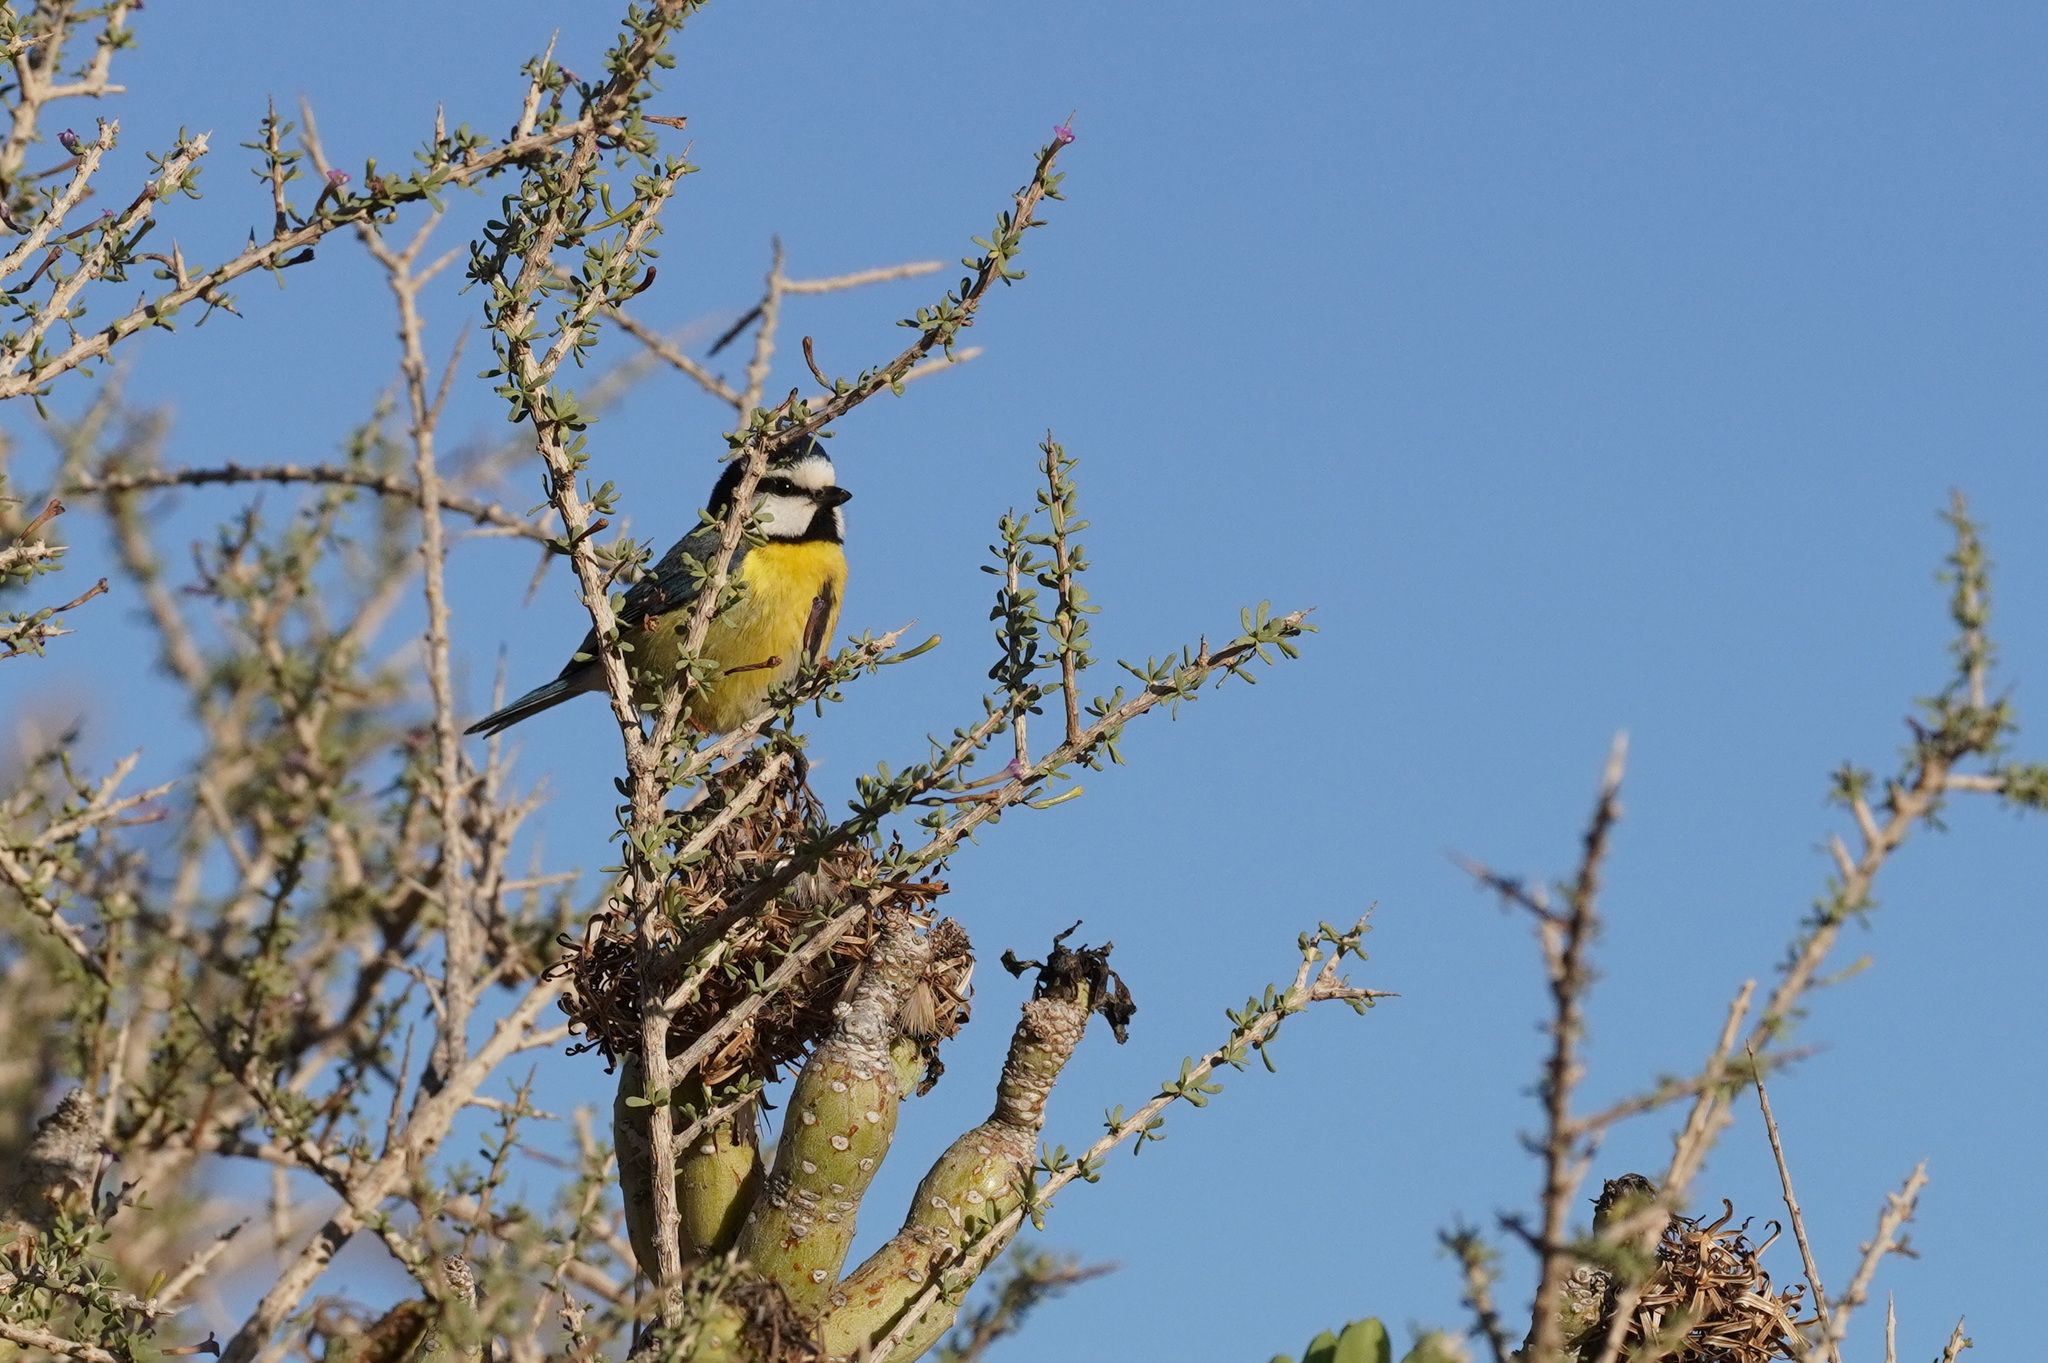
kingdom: Animalia
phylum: Chordata
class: Aves
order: Passeriformes
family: Paridae
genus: Cyanistes
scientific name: Cyanistes teneriffae
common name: African blue tit
